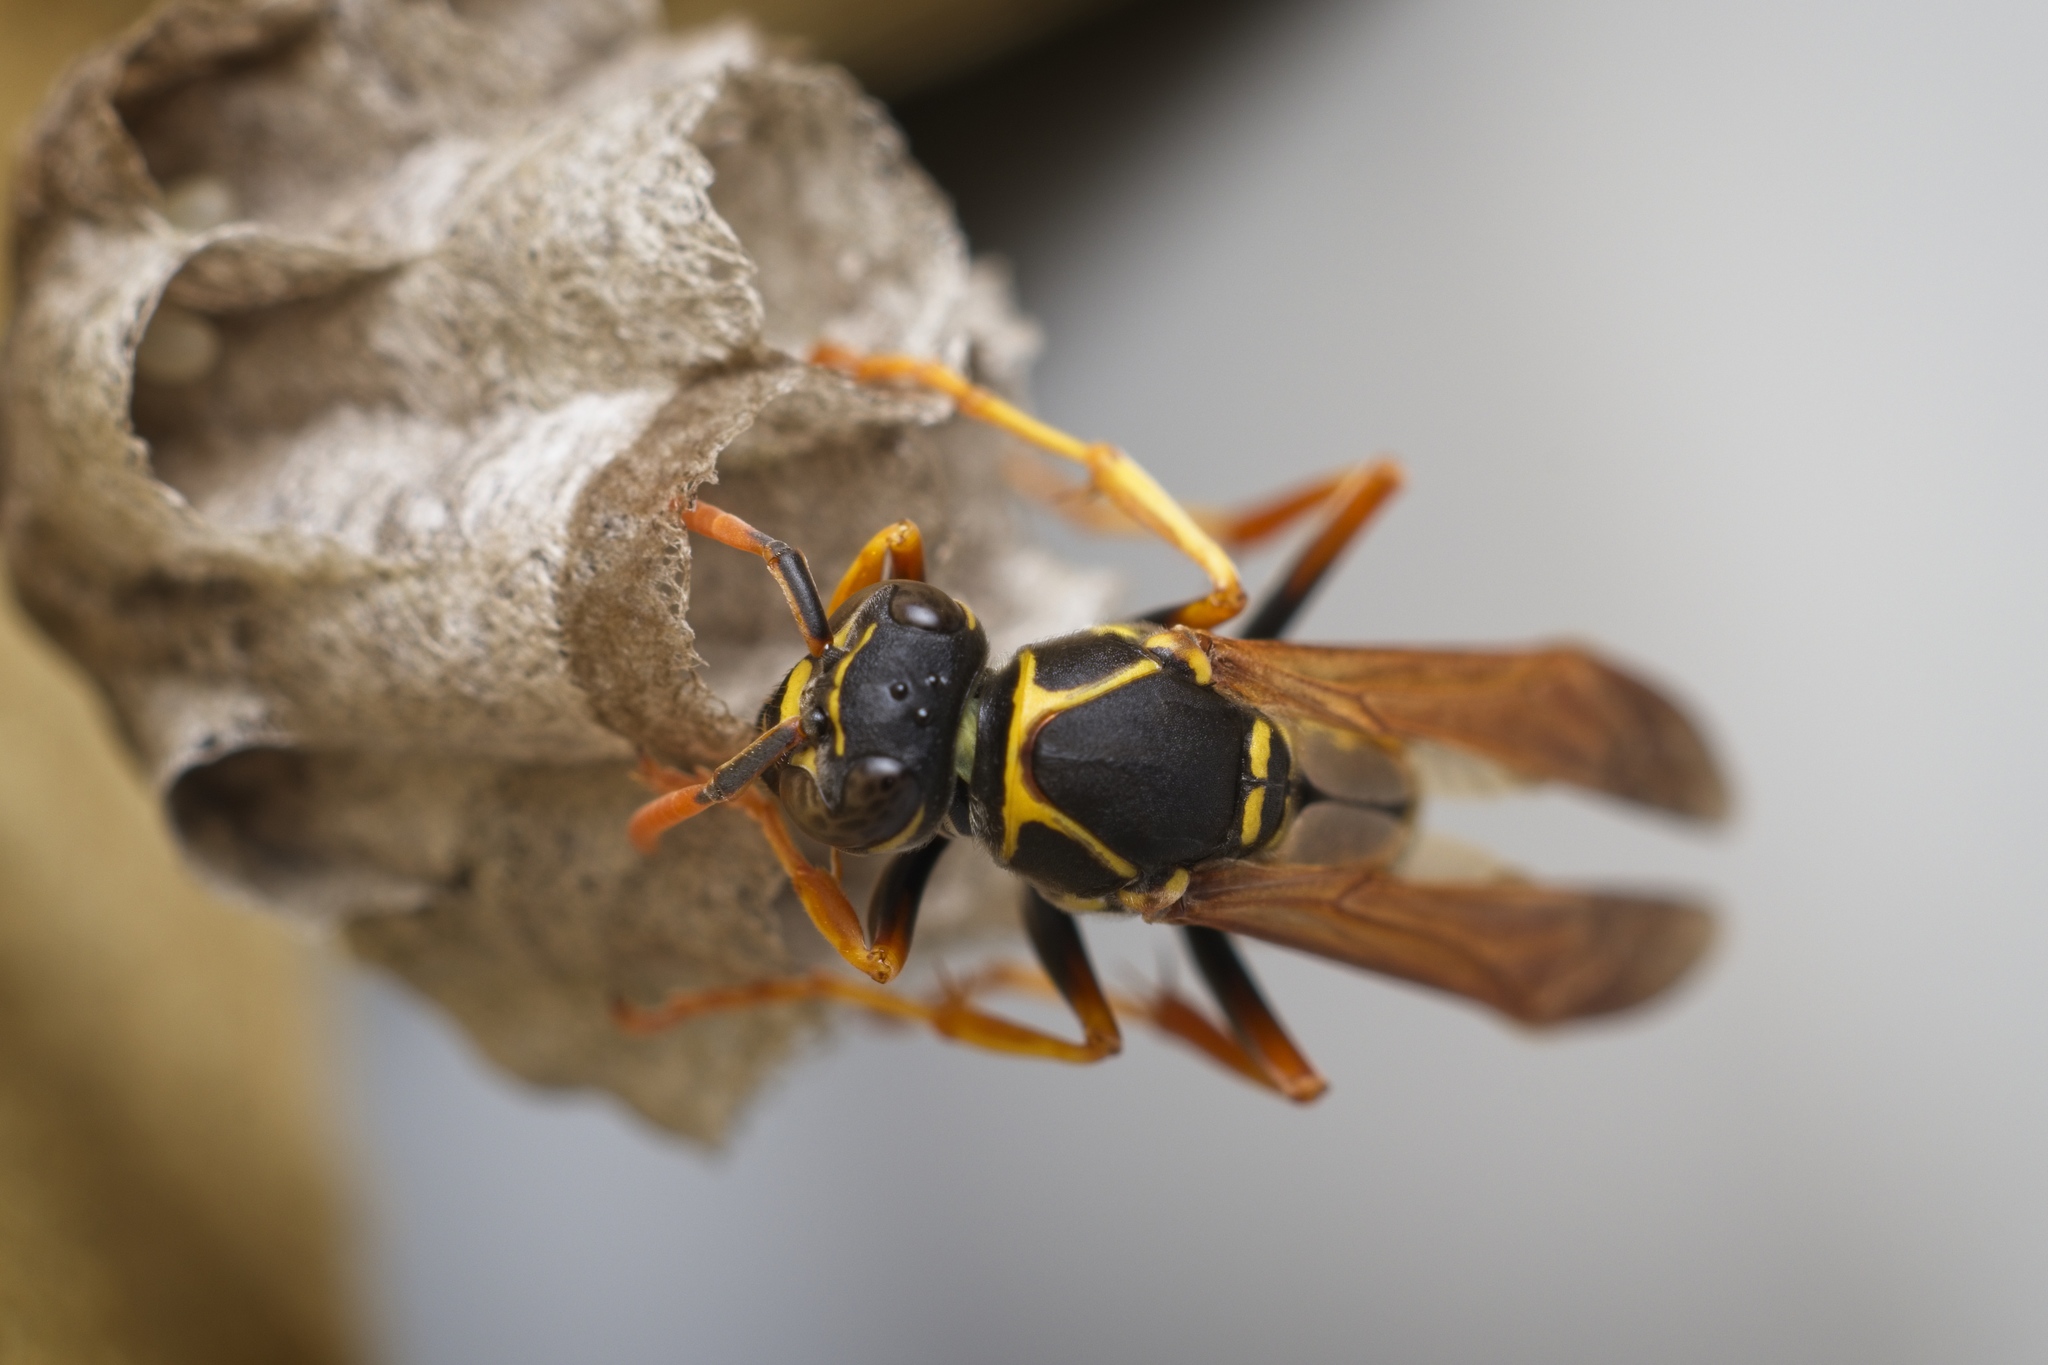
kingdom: Animalia
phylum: Arthropoda
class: Insecta
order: Hymenoptera
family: Eumenidae
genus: Polistes
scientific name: Polistes chinensis
